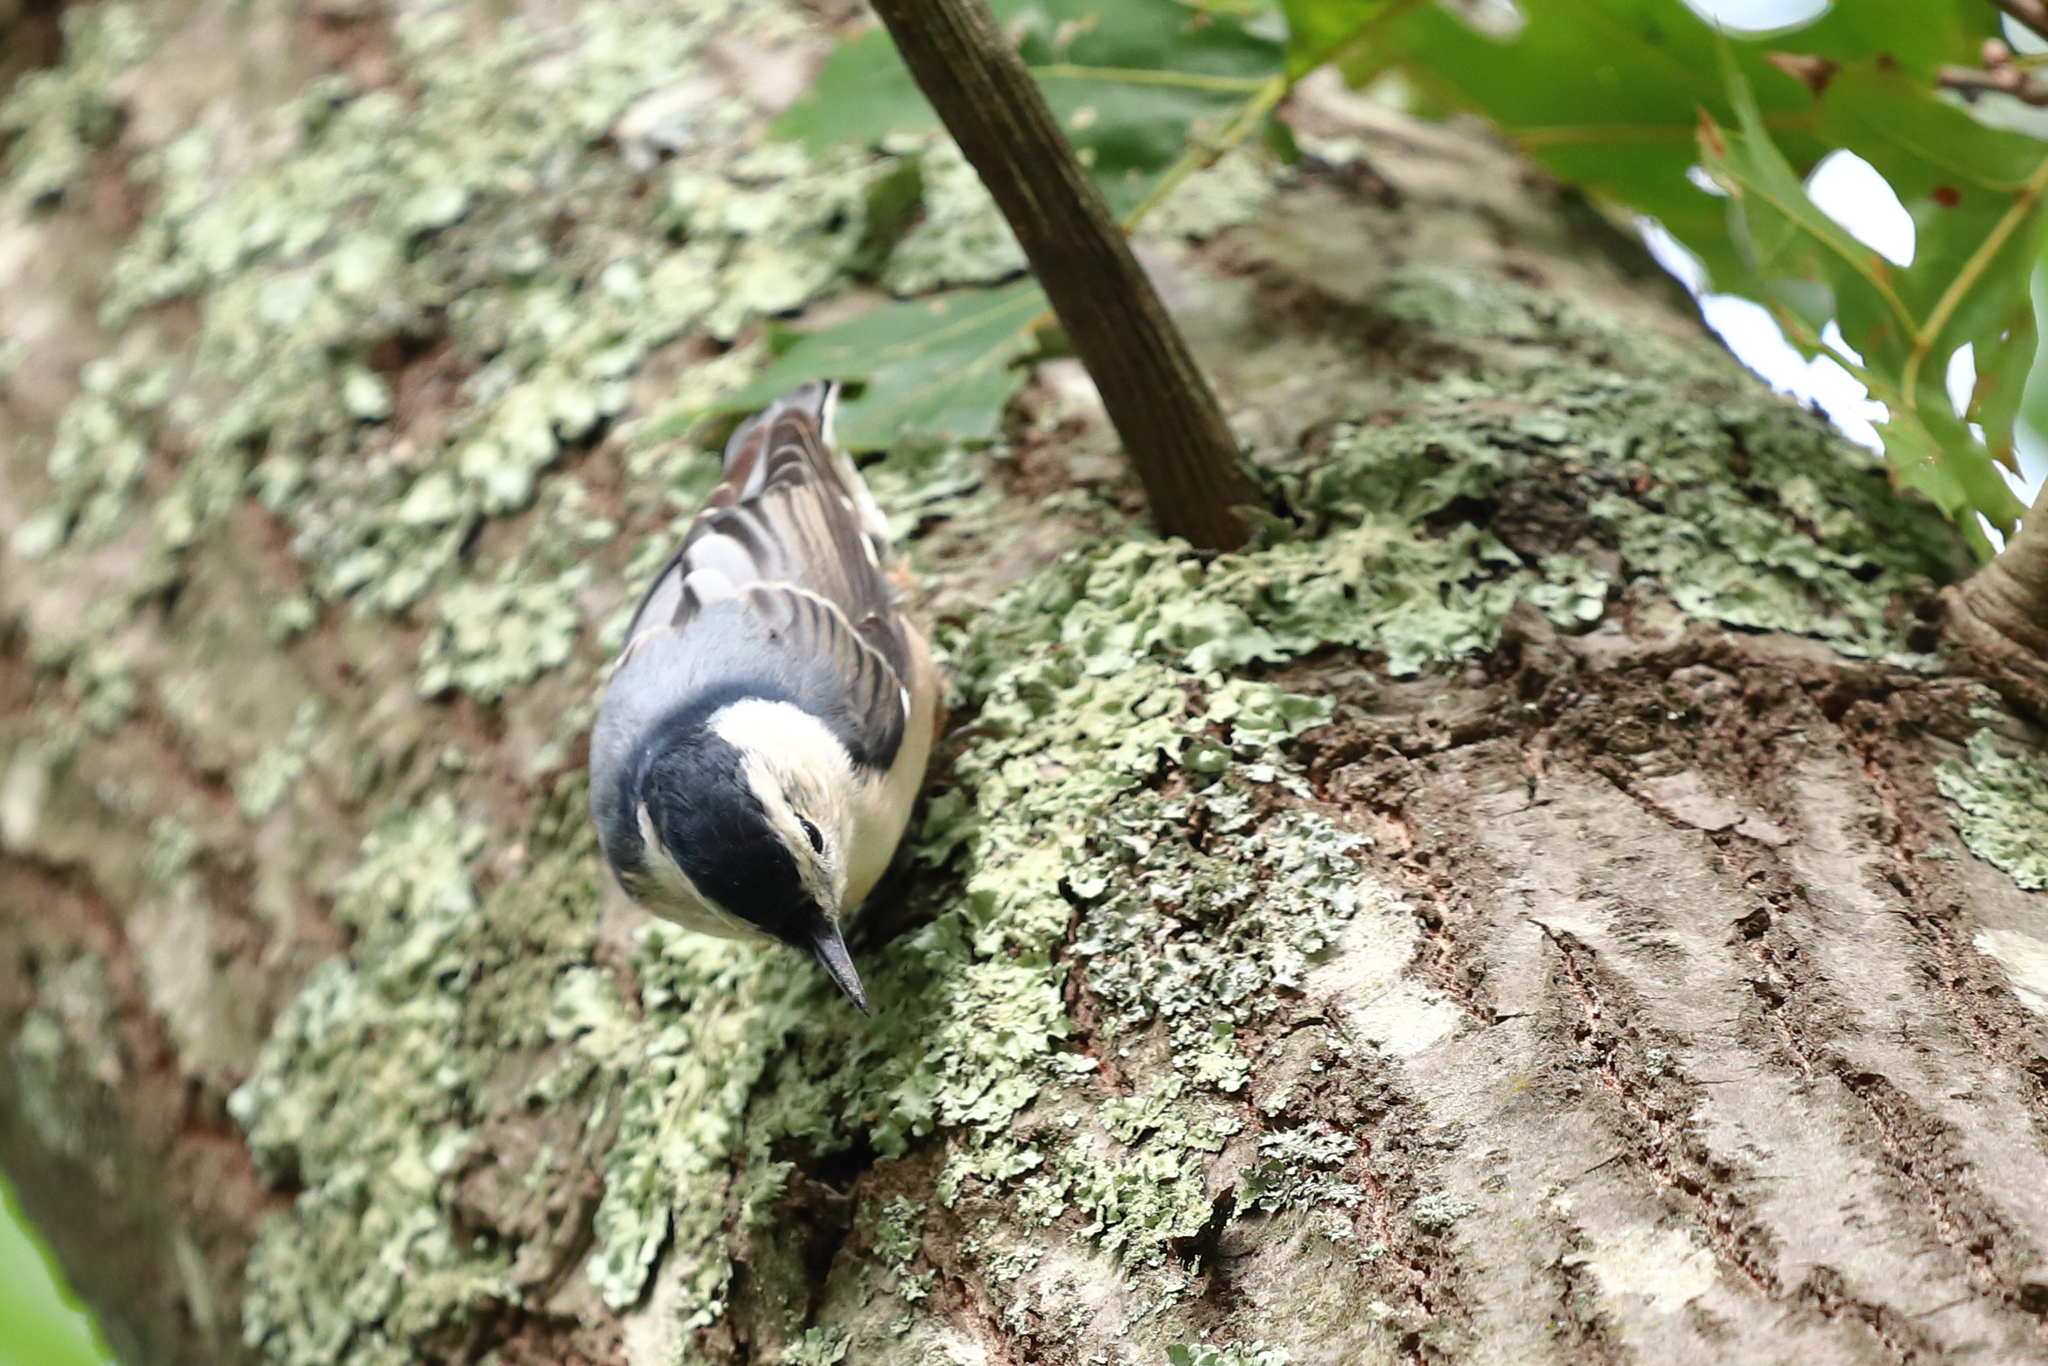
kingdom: Animalia
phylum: Chordata
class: Aves
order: Passeriformes
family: Sittidae
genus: Sitta
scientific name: Sitta carolinensis
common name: White-breasted nuthatch
